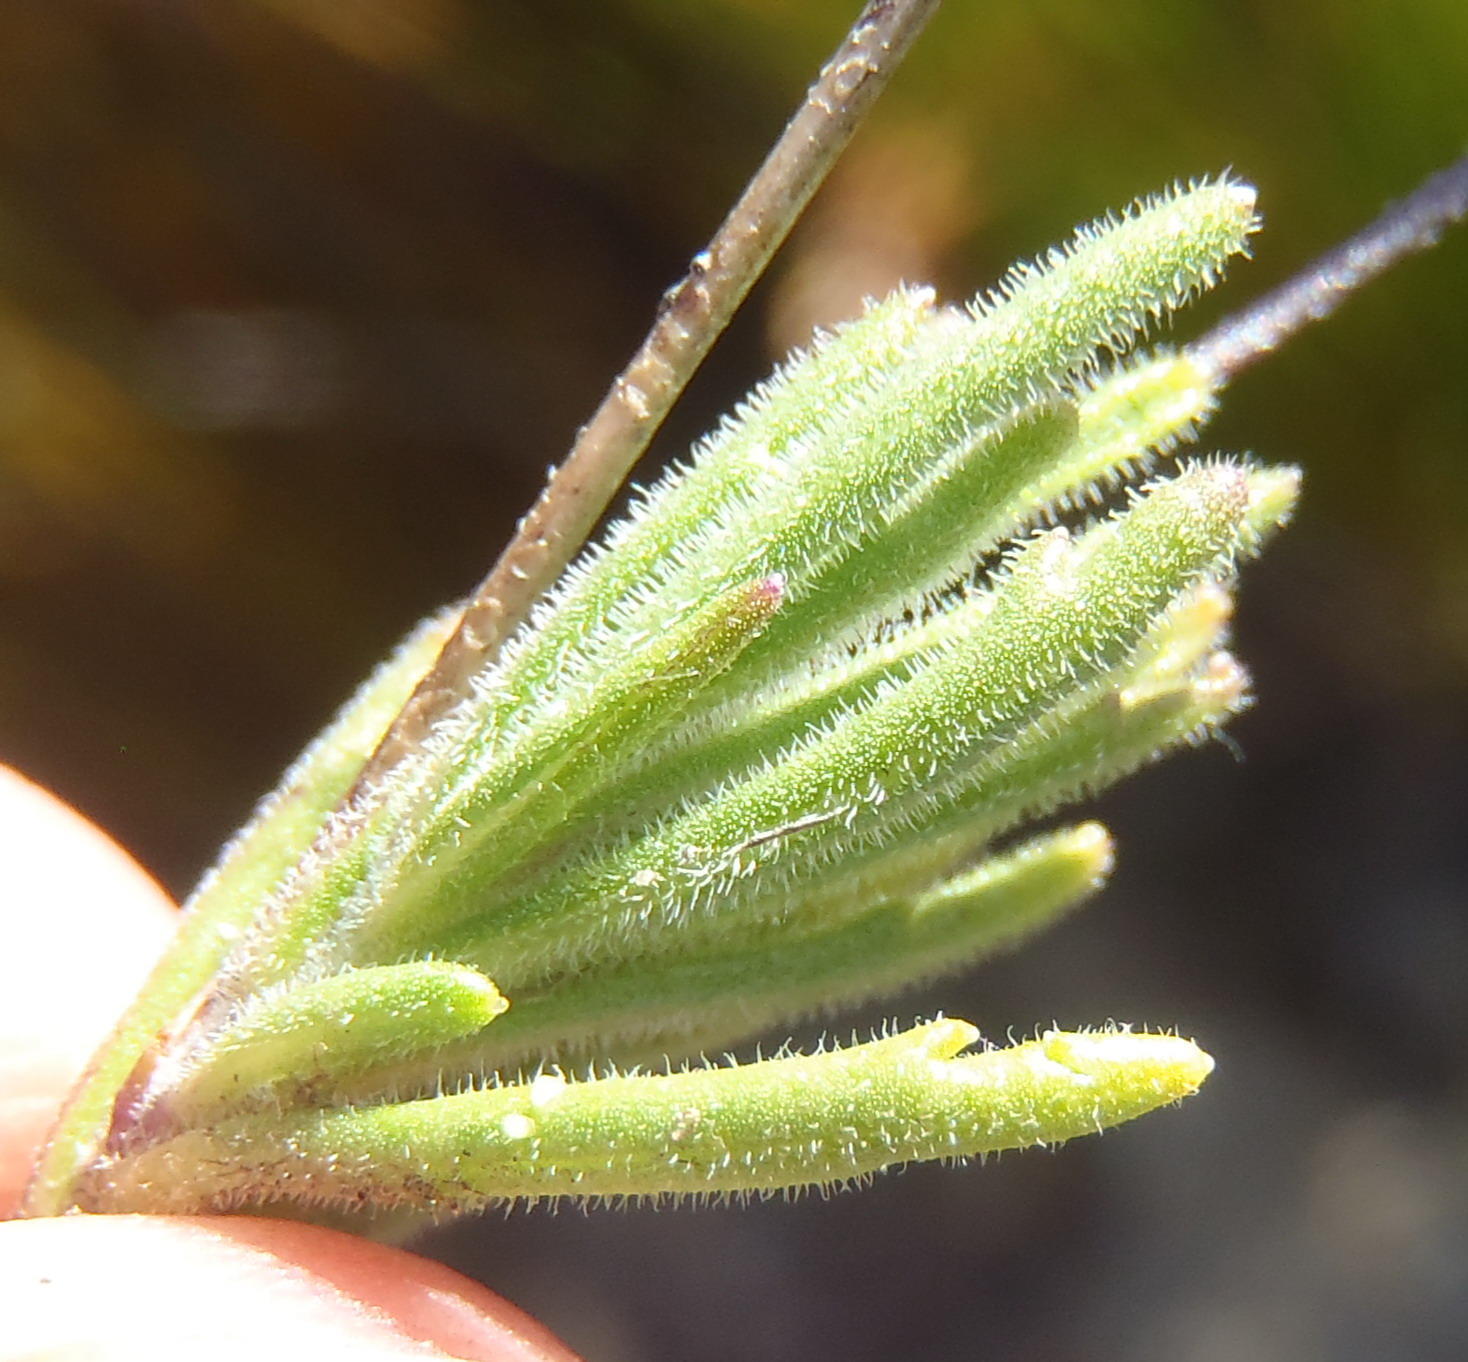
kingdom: Plantae
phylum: Tracheophyta
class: Magnoliopsida
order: Asterales
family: Campanulaceae
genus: Lobelia
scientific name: Lobelia tomentosa
